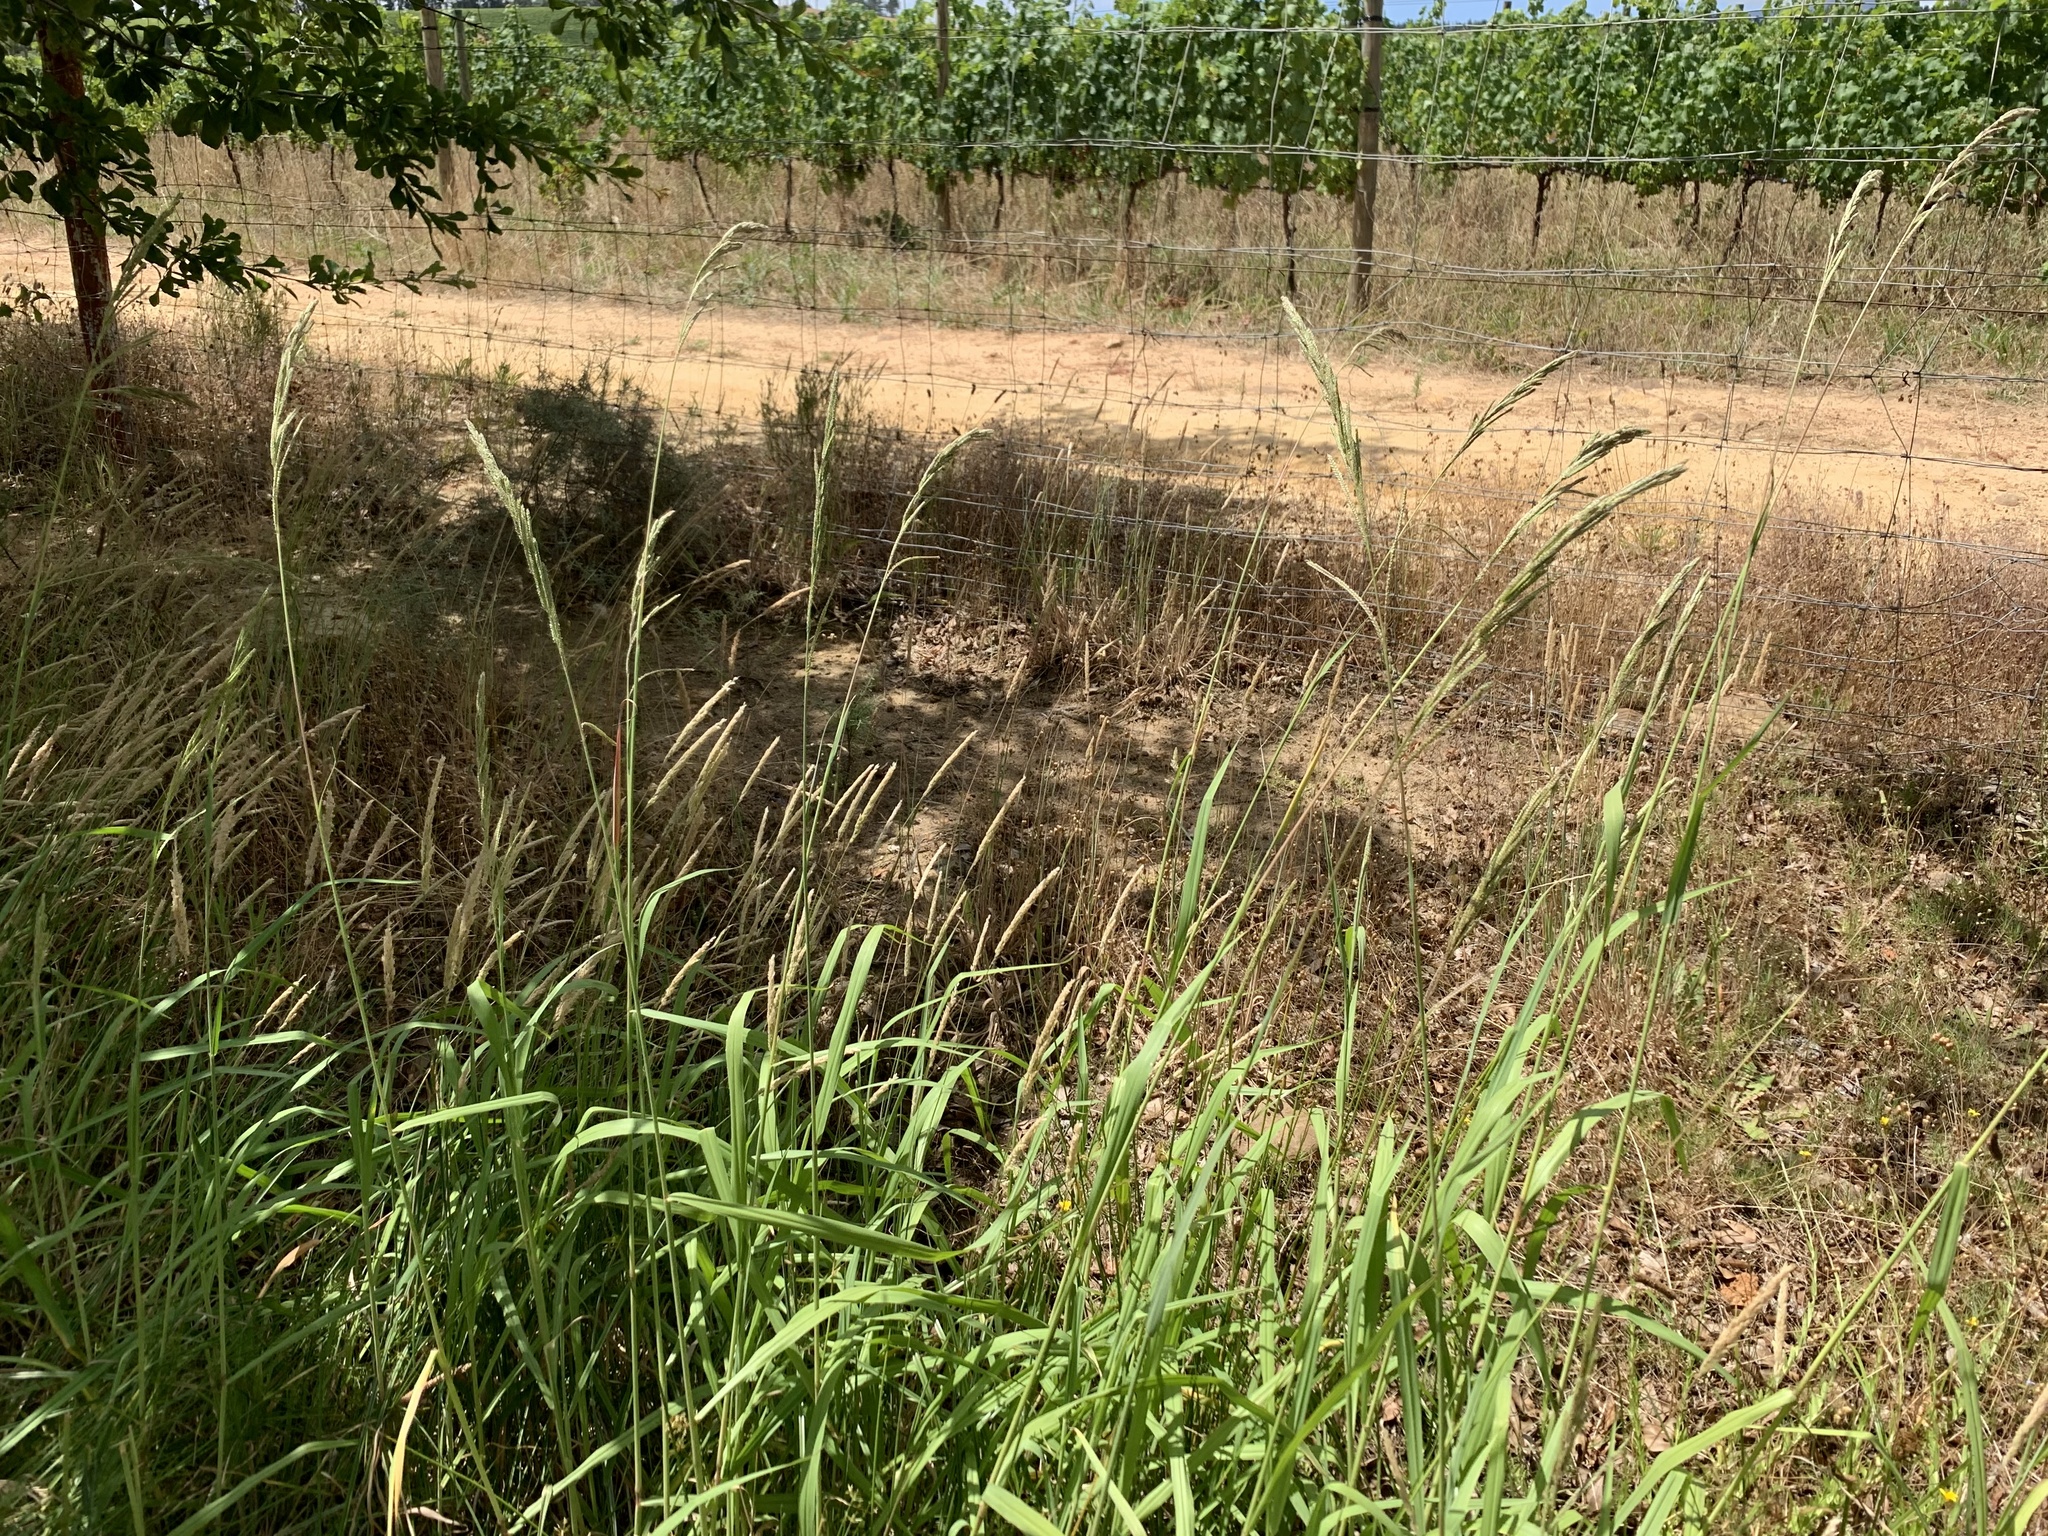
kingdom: Plantae
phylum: Tracheophyta
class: Liliopsida
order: Poales
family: Poaceae
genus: Paspalum
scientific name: Paspalum urvillei
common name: Vasey's grass
